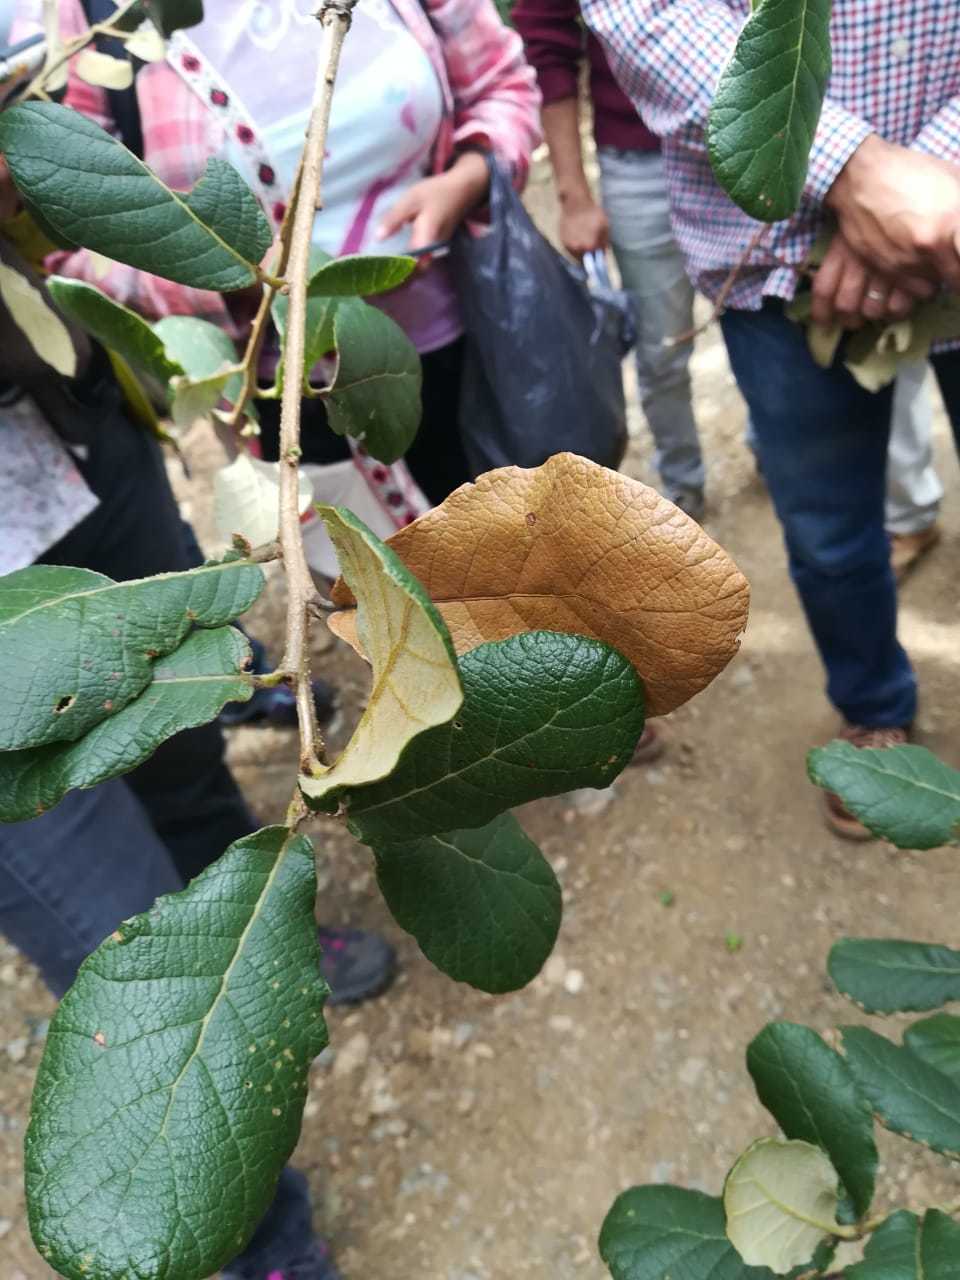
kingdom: Plantae
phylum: Tracheophyta
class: Magnoliopsida
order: Fagales
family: Fagaceae
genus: Quercus
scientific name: Quercus rugosa
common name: Netleaf oak
